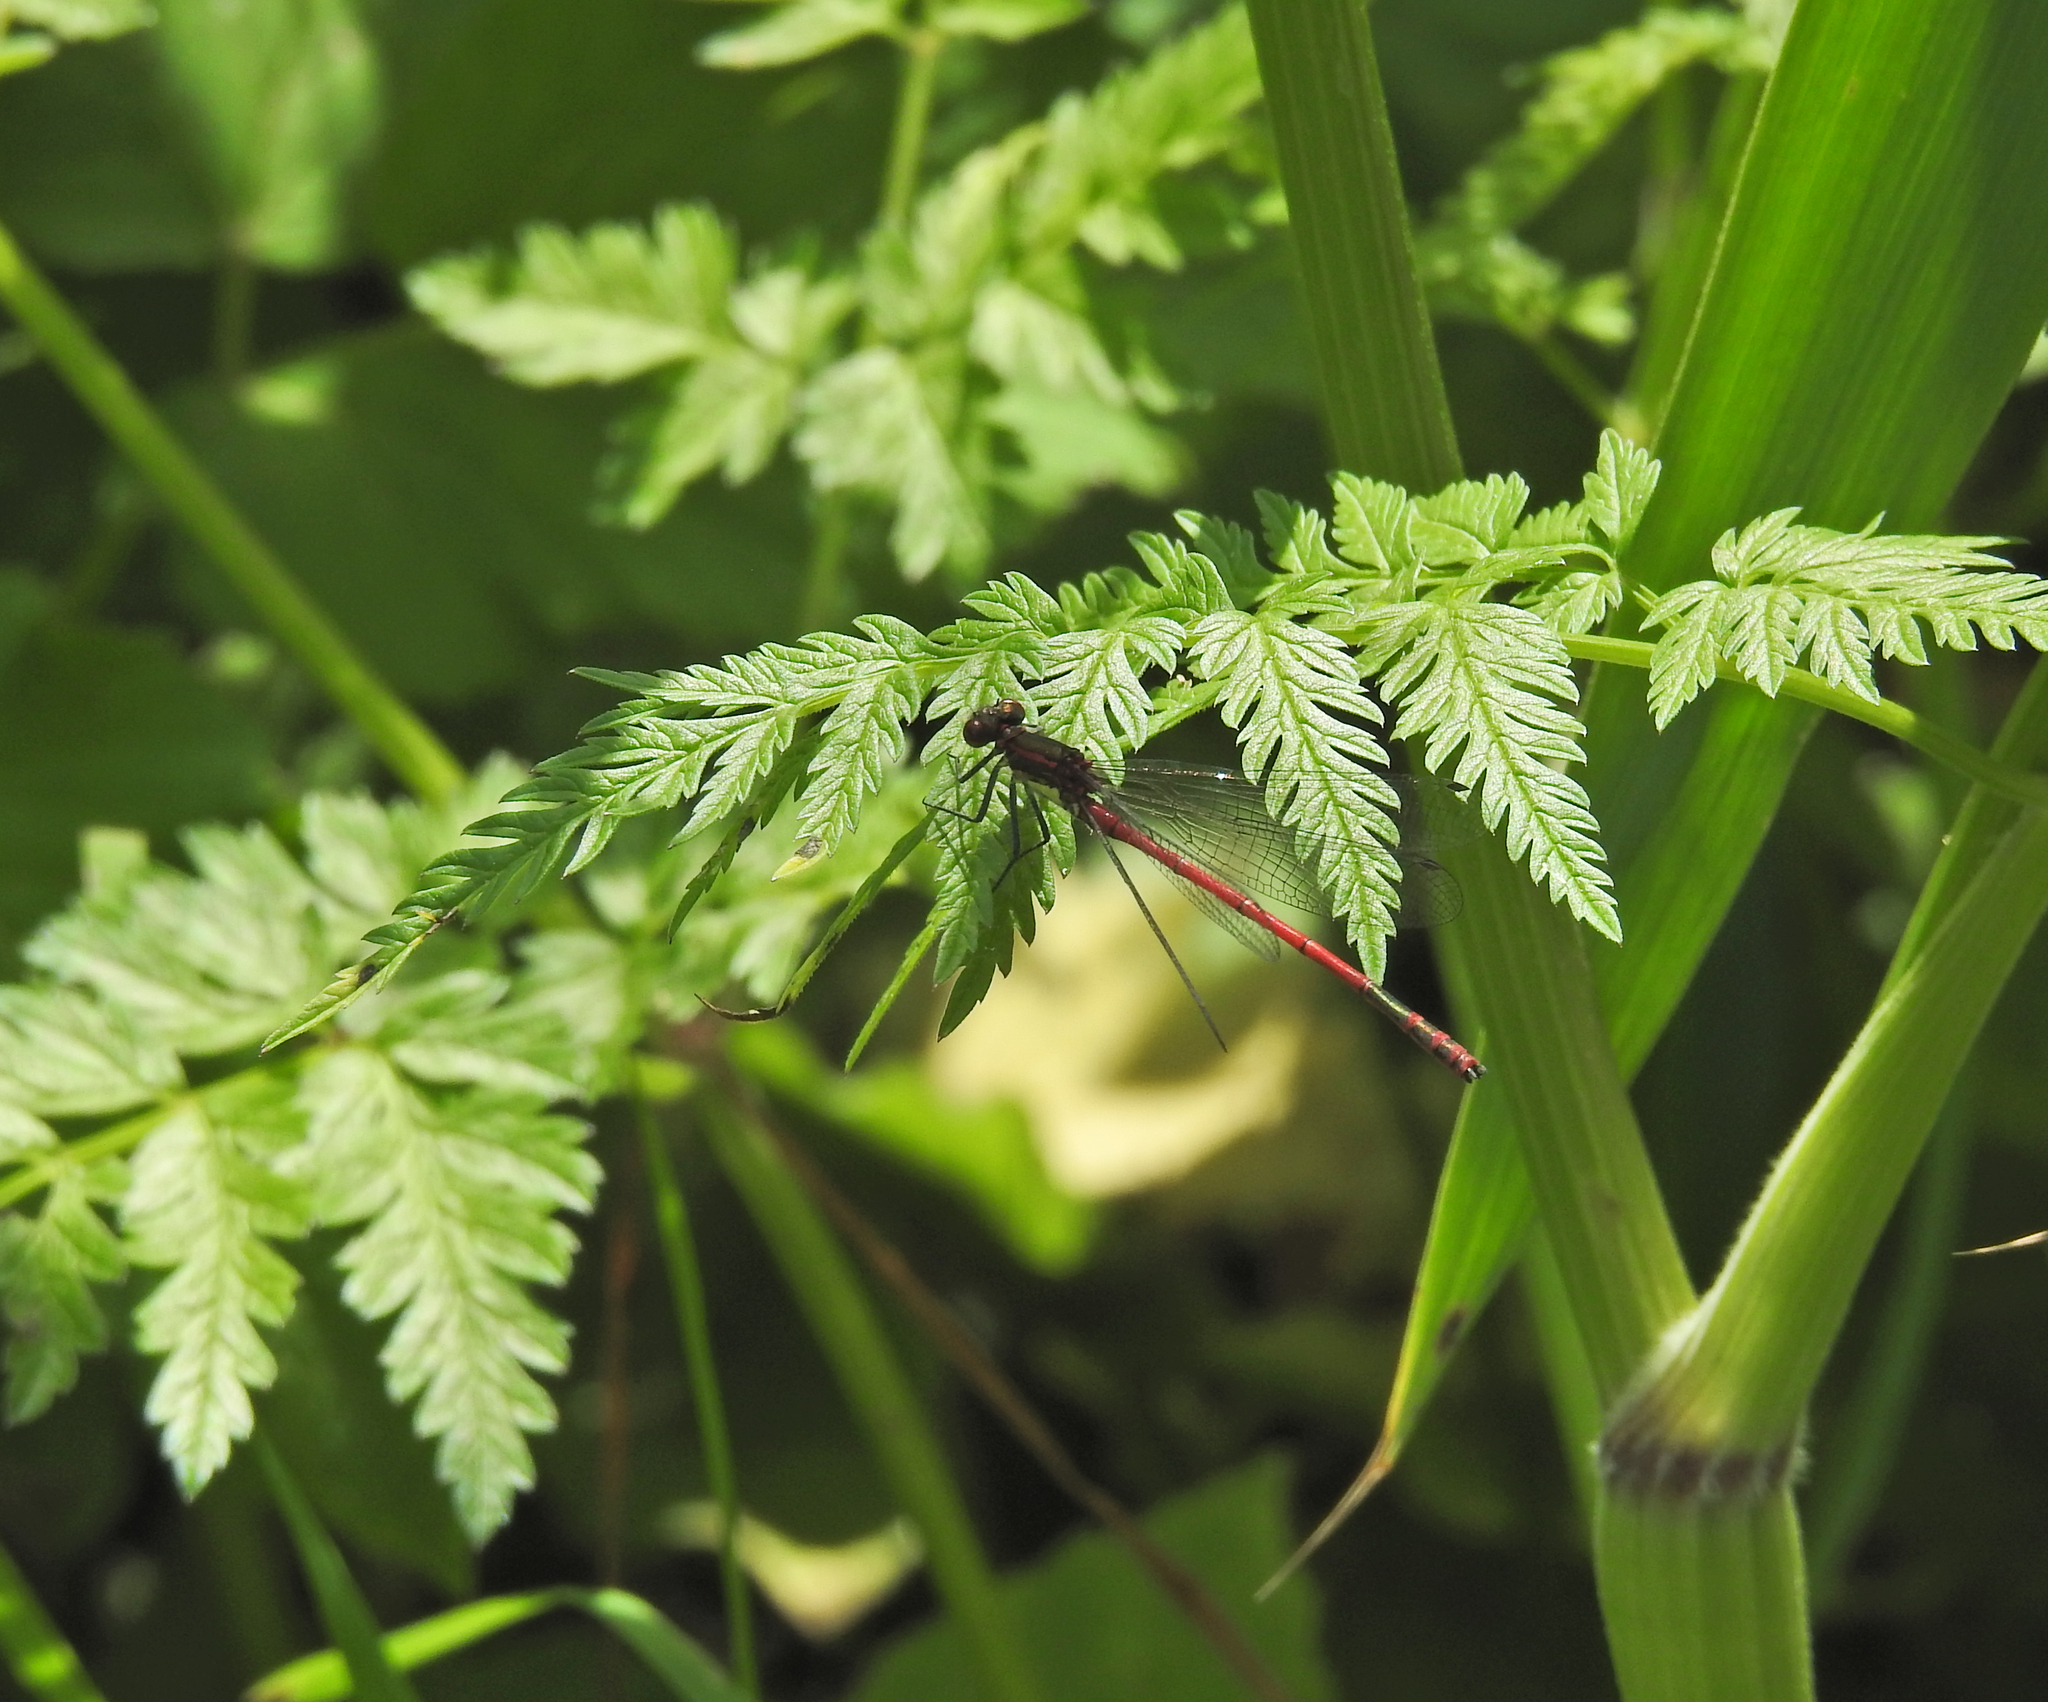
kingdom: Animalia
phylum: Arthropoda
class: Insecta
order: Odonata
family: Coenagrionidae
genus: Pyrrhosoma
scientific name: Pyrrhosoma nymphula
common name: Large red damsel
